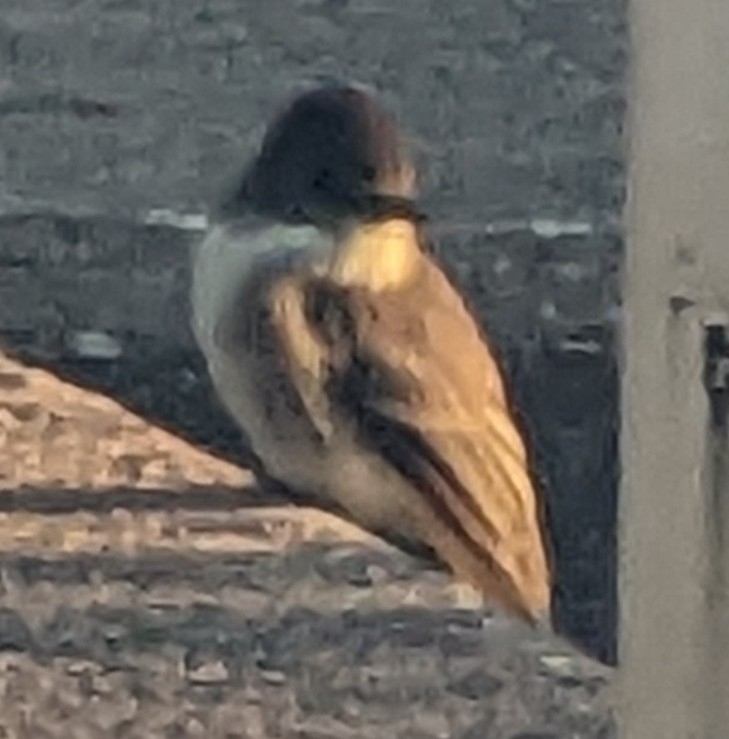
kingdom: Animalia
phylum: Chordata
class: Aves
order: Passeriformes
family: Tyrannidae
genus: Sayornis
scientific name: Sayornis phoebe
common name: Eastern phoebe
